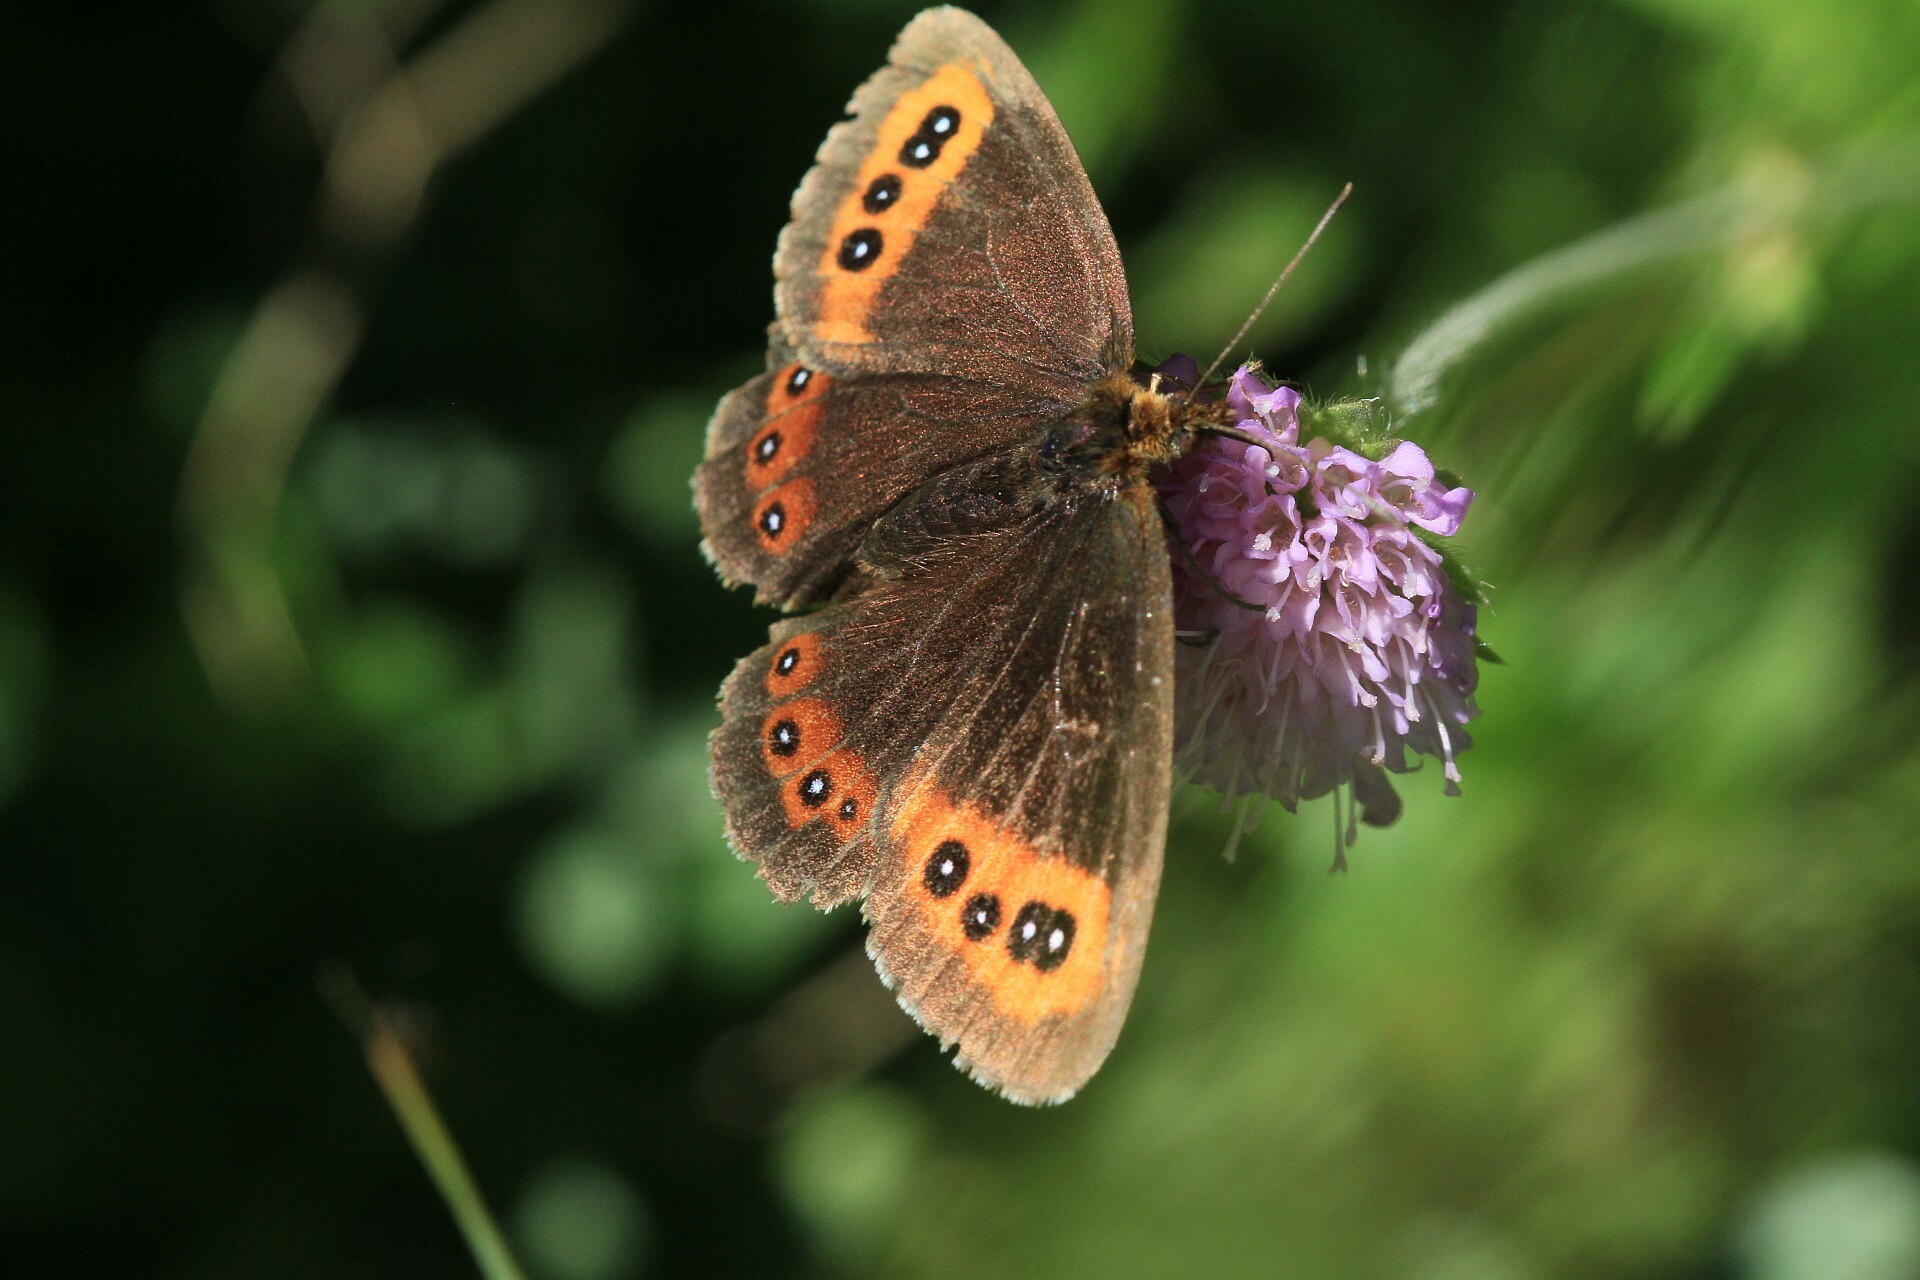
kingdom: Animalia
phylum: Arthropoda
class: Insecta
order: Lepidoptera
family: Nymphalidae
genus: Erebia
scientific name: Erebia aethiops
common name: Scotch argus
